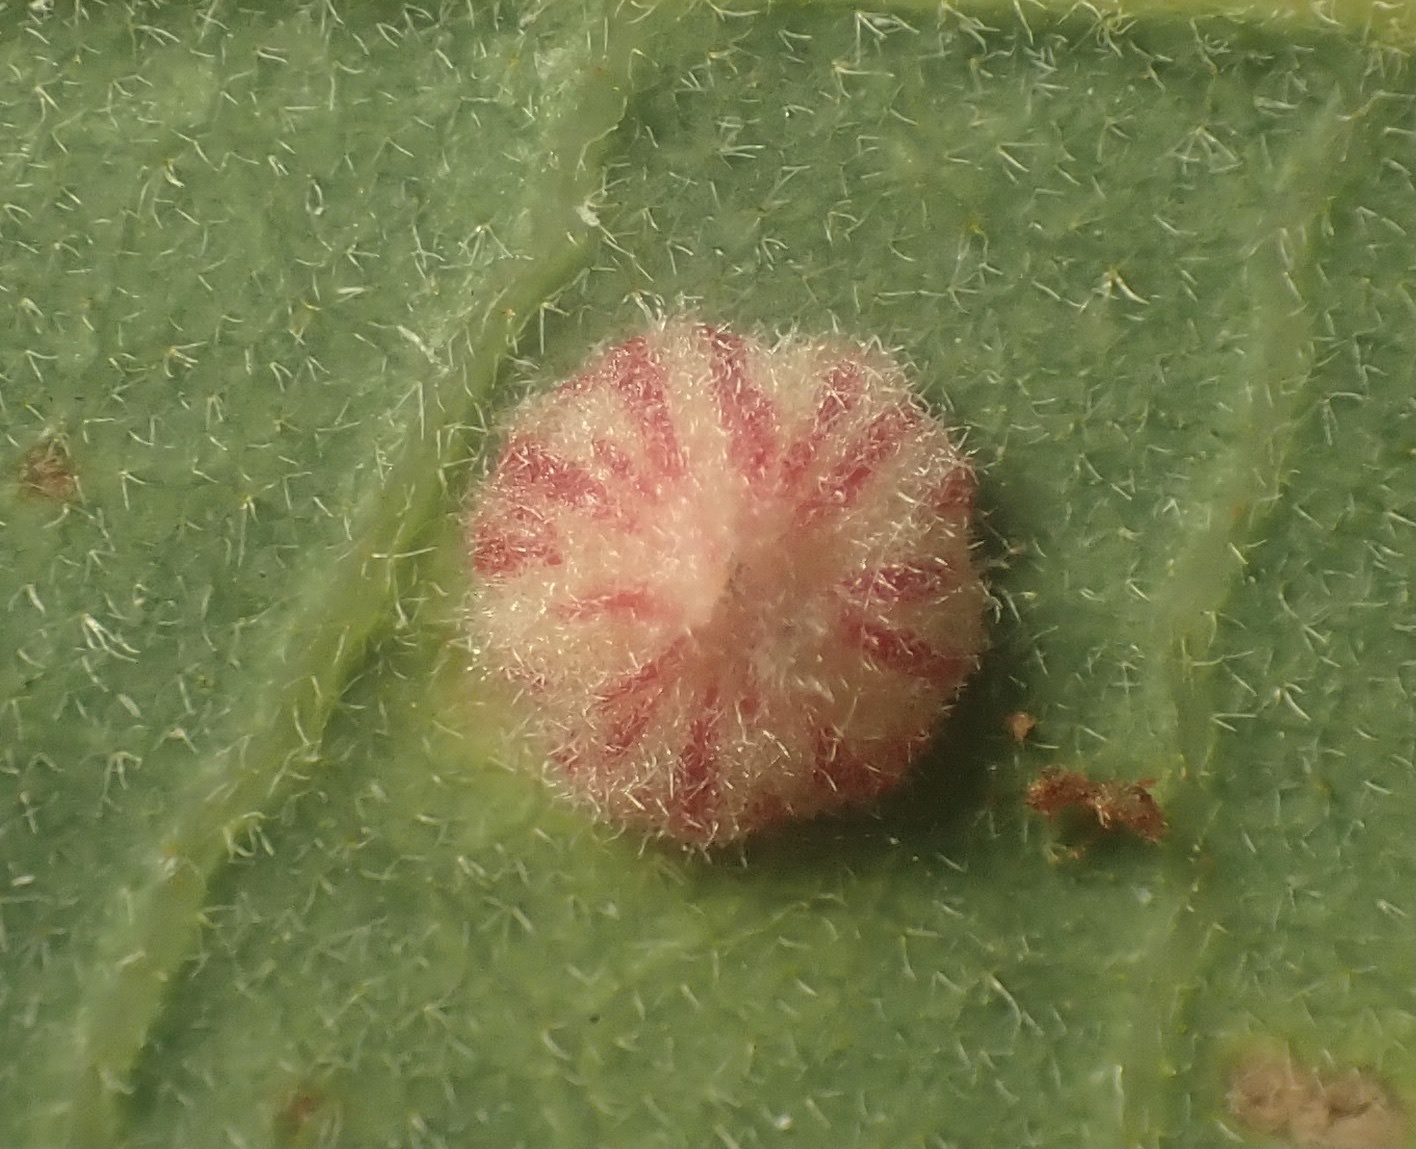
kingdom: Animalia
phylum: Arthropoda
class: Insecta
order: Hymenoptera
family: Cynipidae
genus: Andricus
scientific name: Andricus
